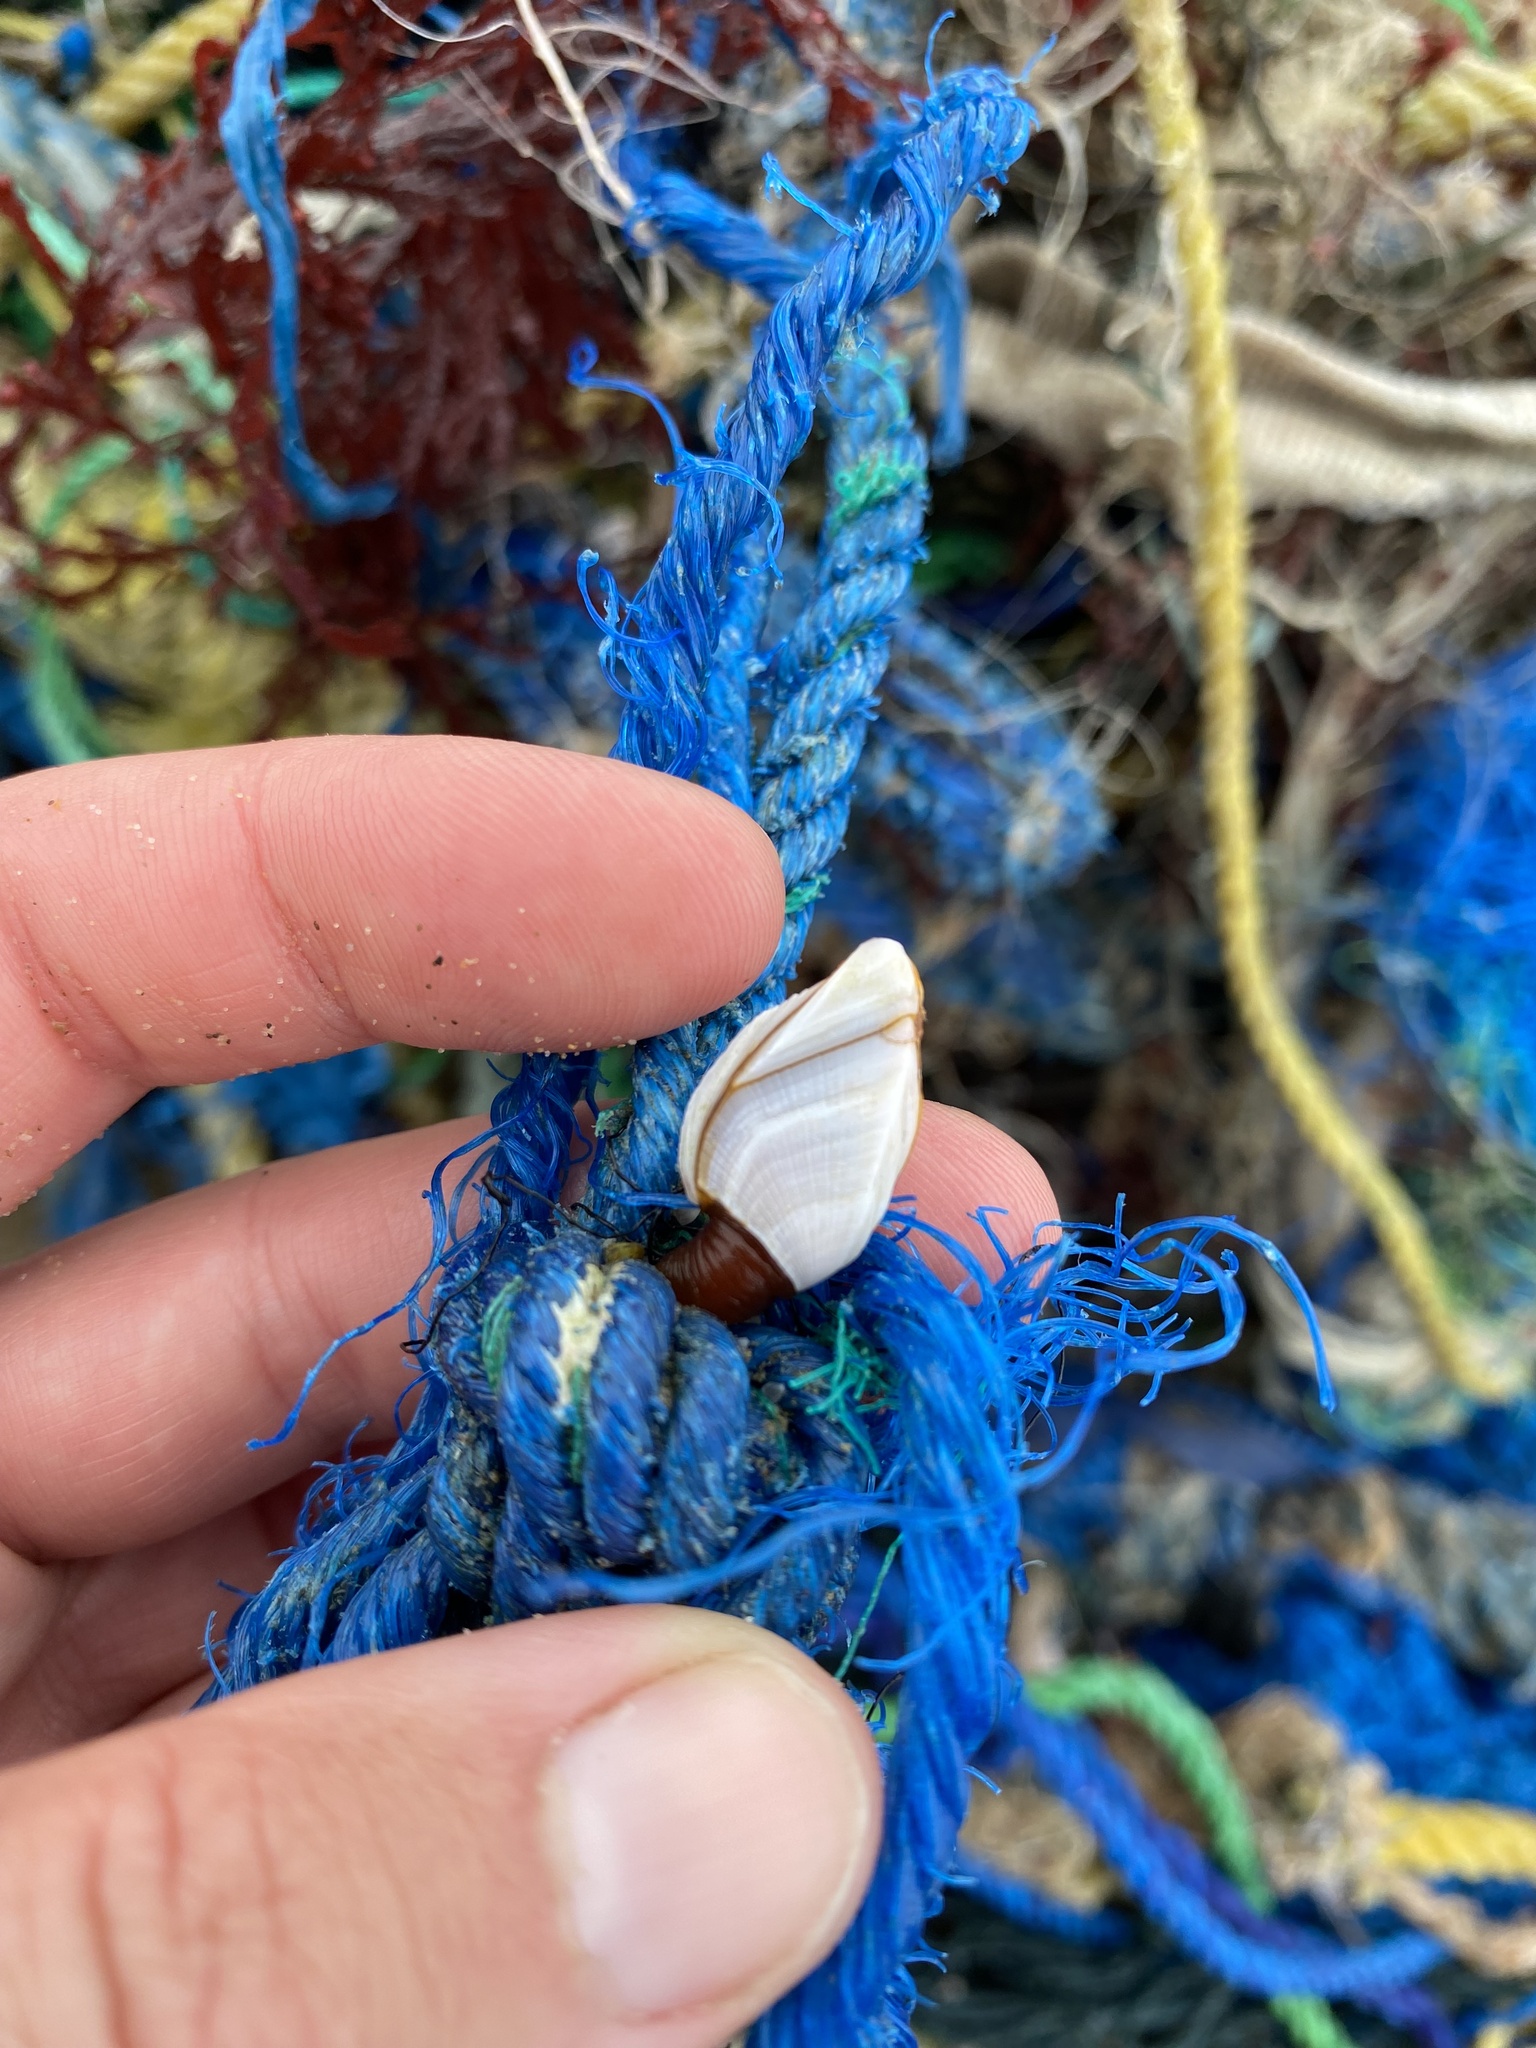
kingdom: Animalia
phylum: Arthropoda
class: Maxillopoda
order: Pedunculata
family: Lepadidae
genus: Lepas
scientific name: Lepas anserifera
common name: Goose barnacle
